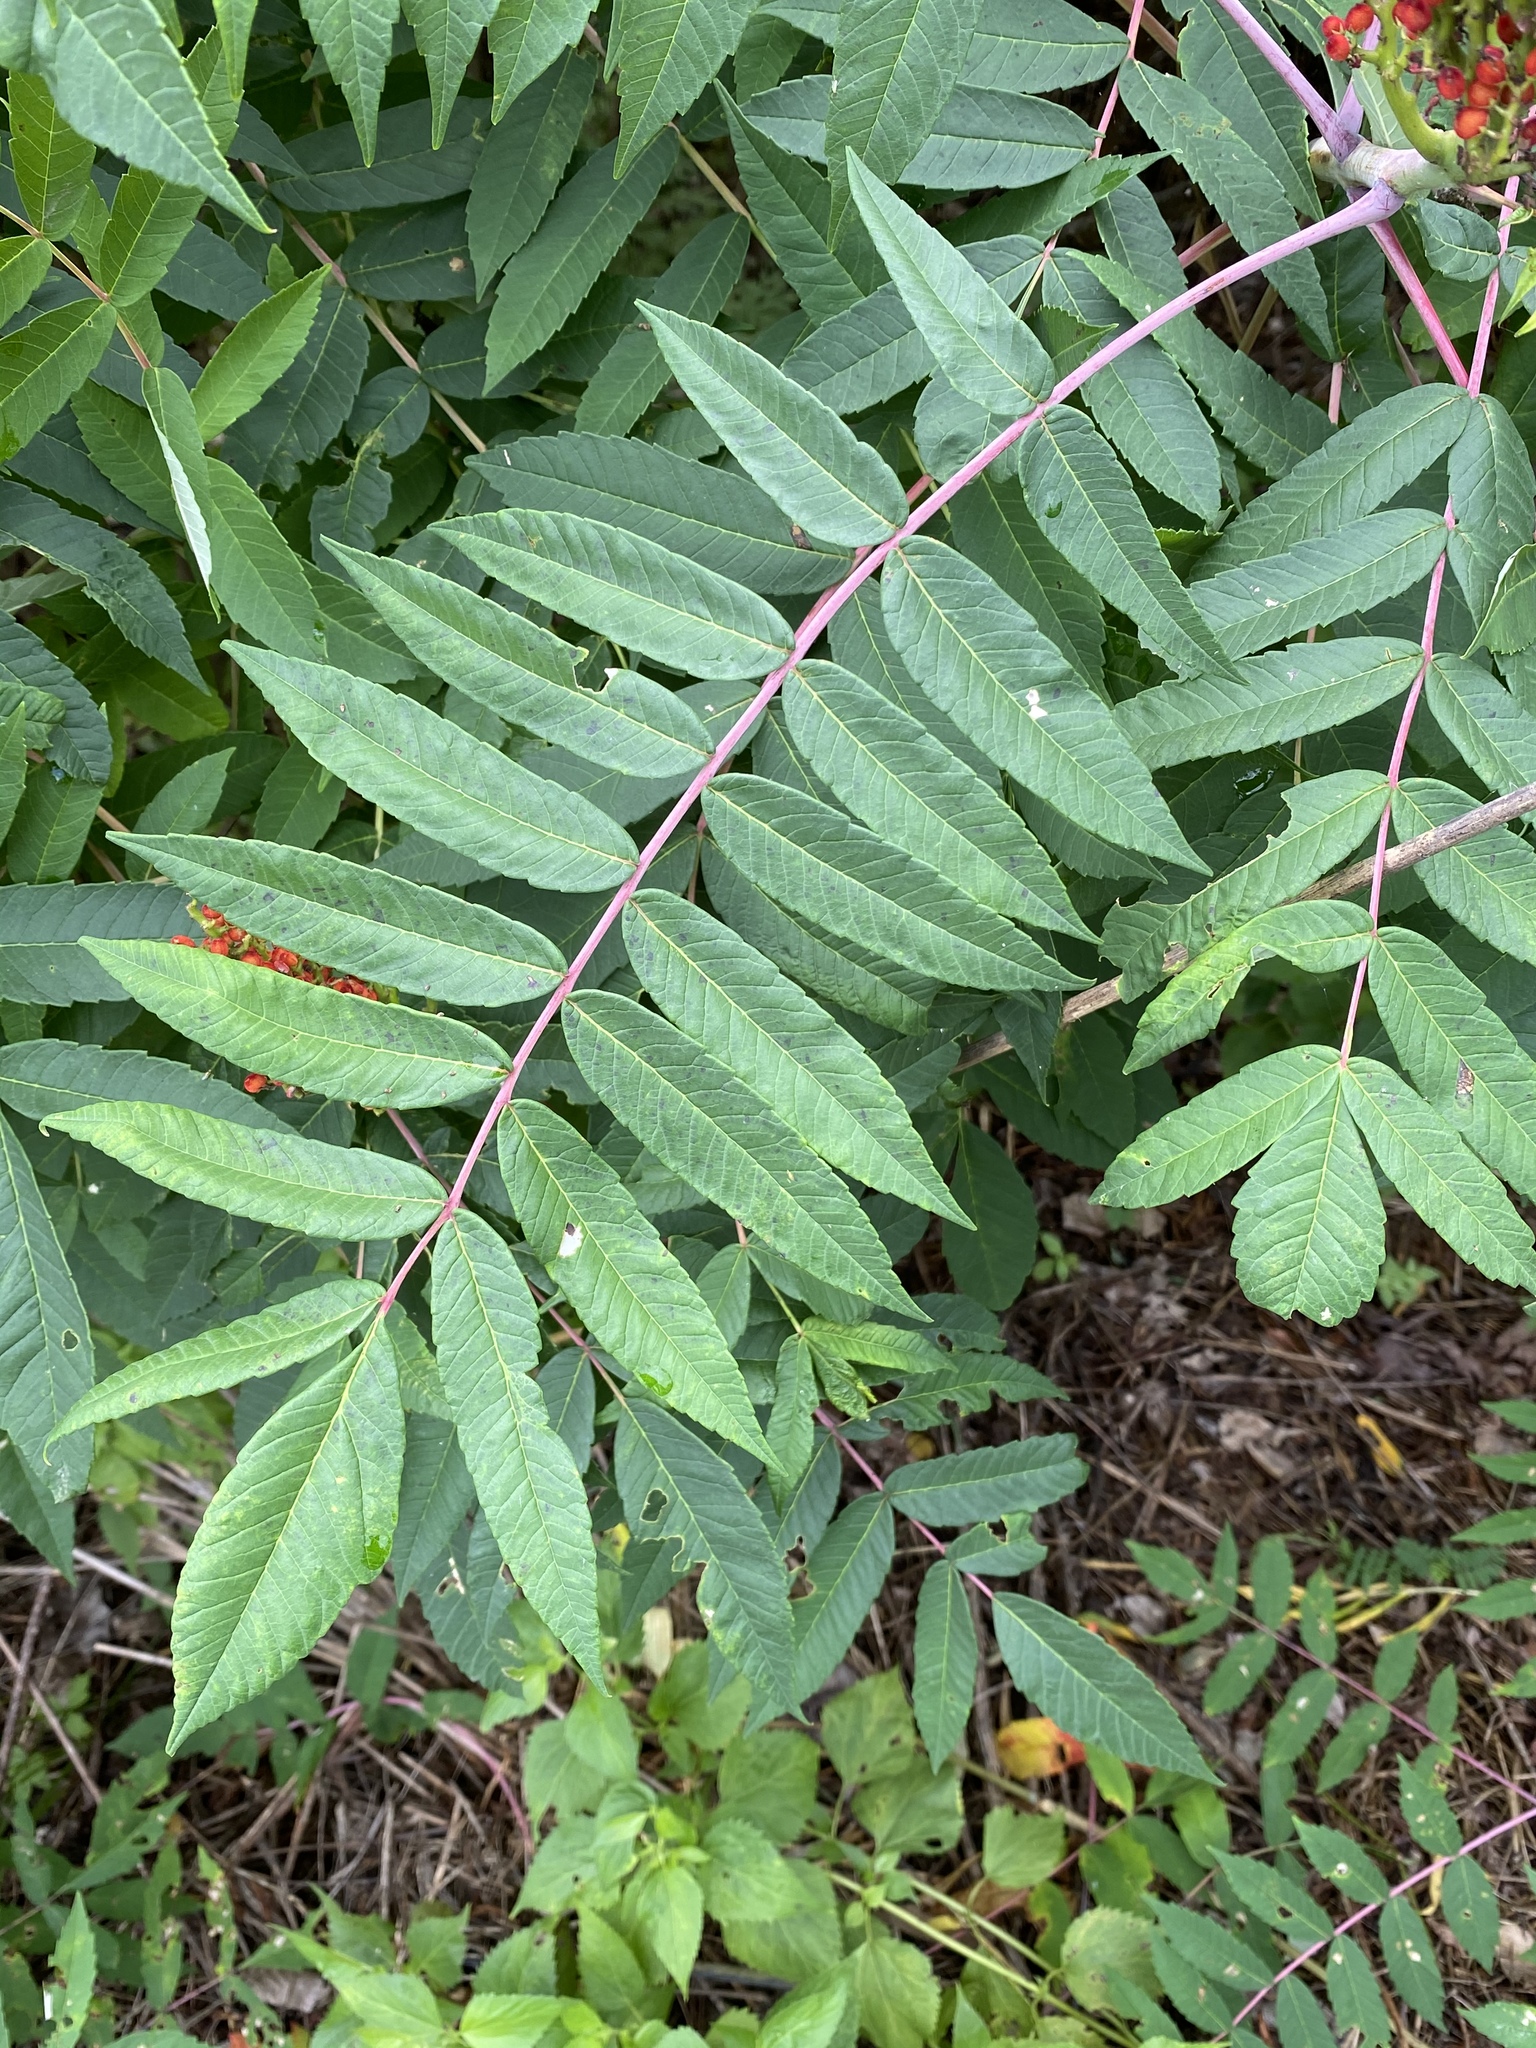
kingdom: Plantae
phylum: Tracheophyta
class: Magnoliopsida
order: Sapindales
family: Anacardiaceae
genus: Rhus
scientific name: Rhus glabra
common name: Scarlet sumac
